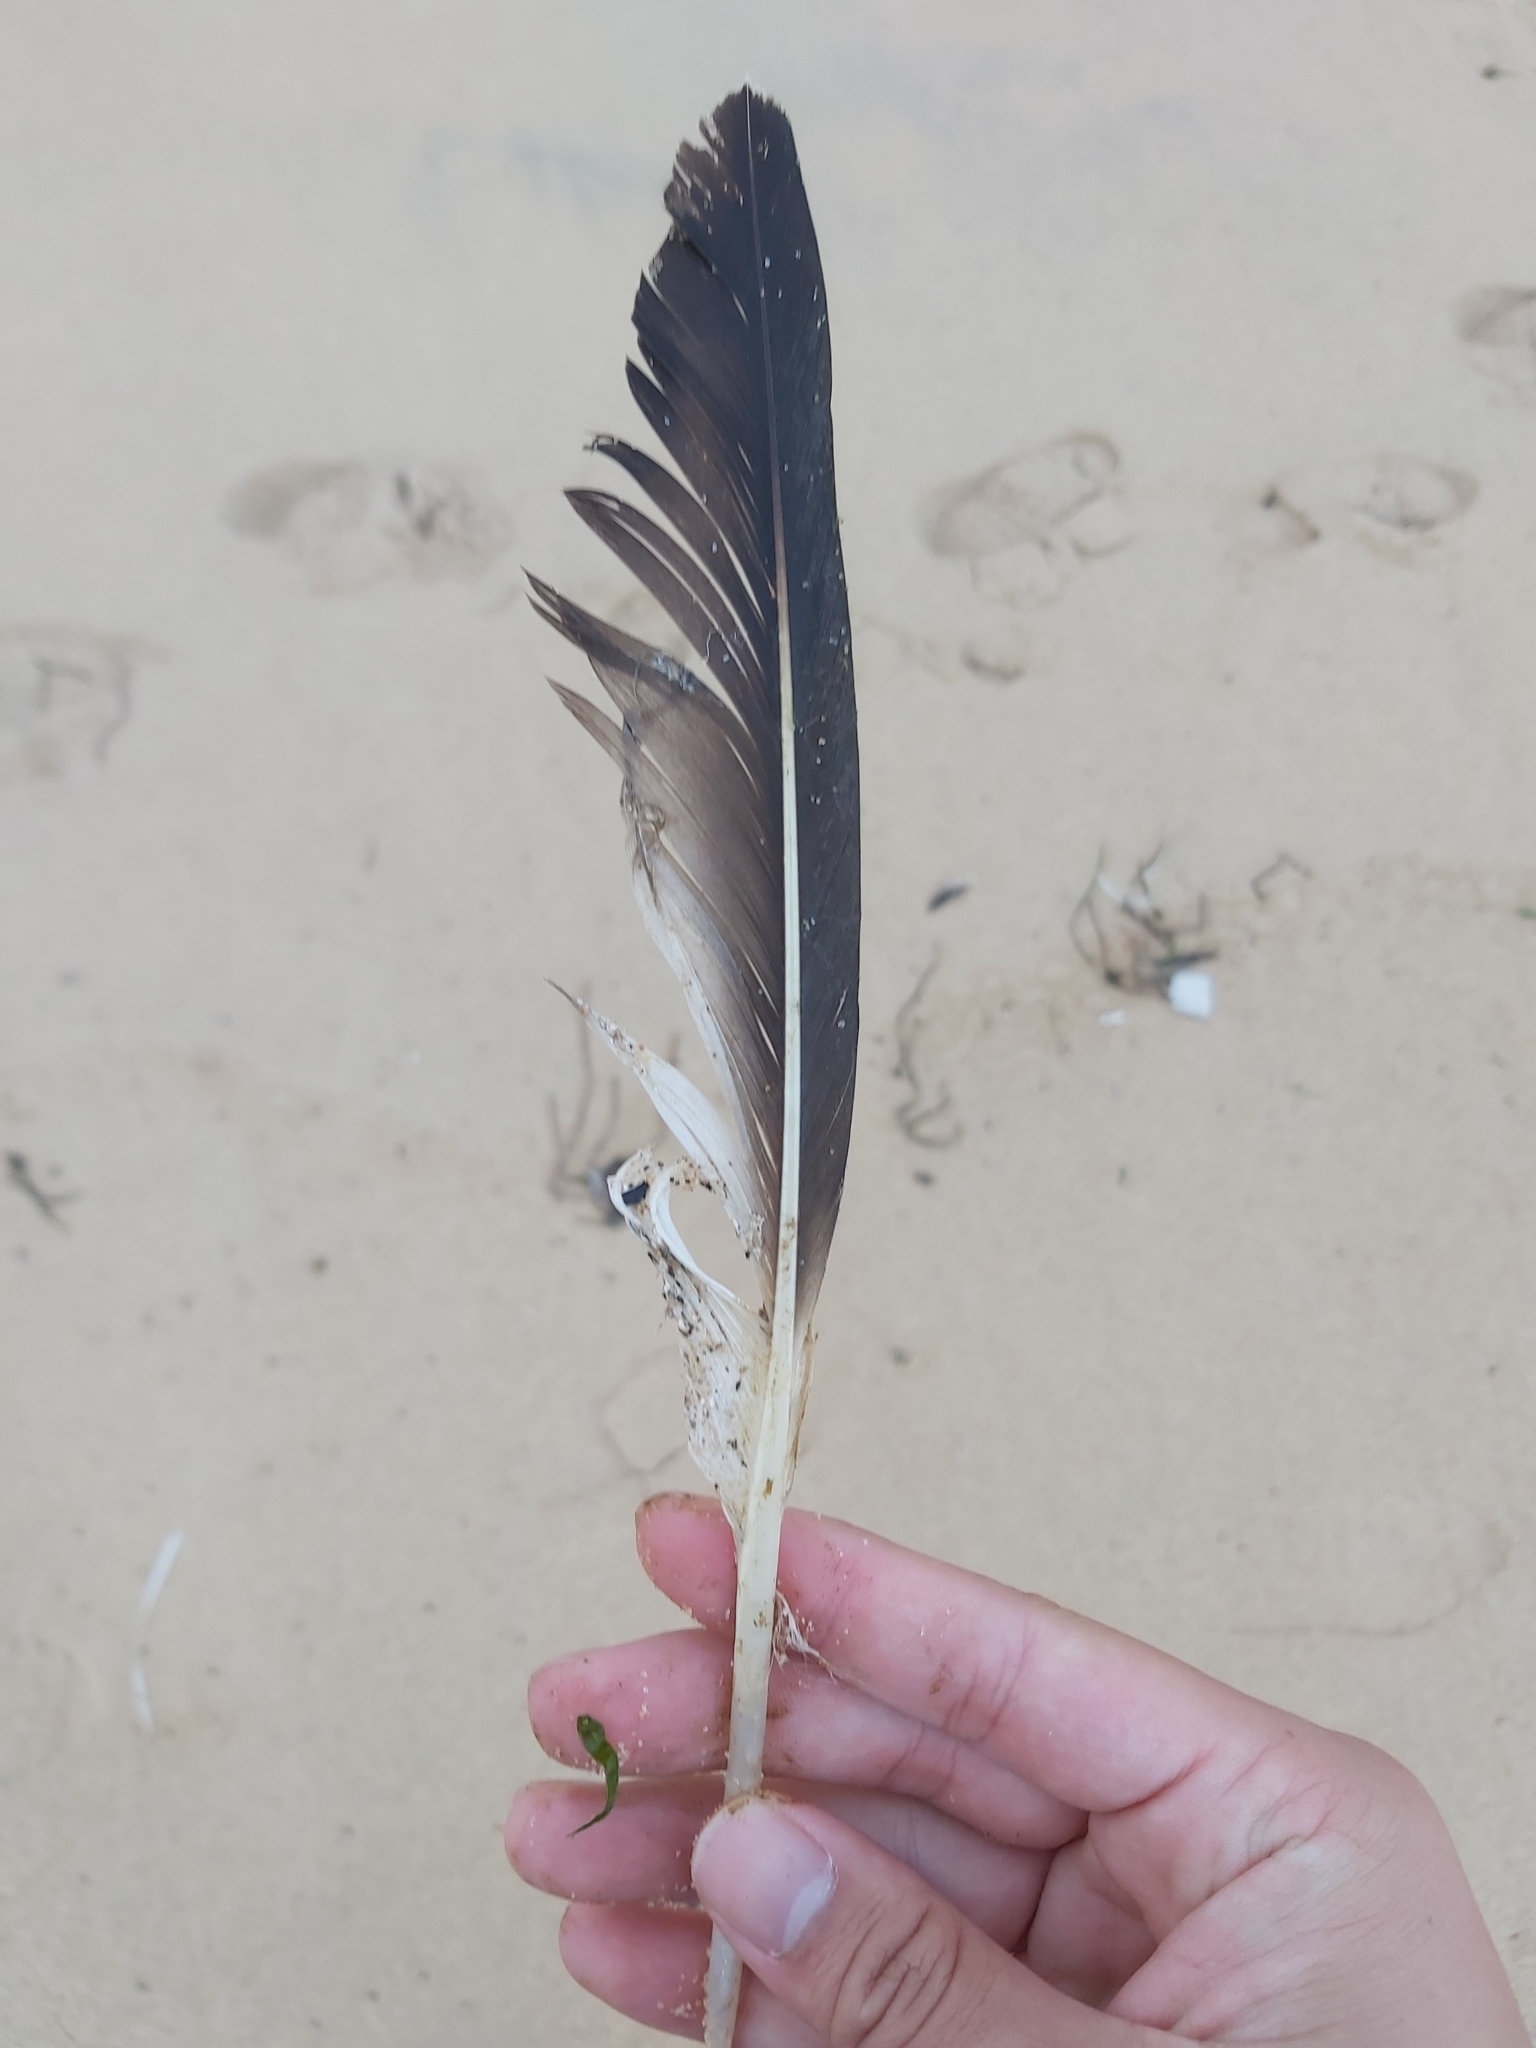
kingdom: Animalia
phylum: Chordata
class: Aves
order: Suliformes
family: Sulidae
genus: Morus
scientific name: Morus serrator
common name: Australasian gannet
